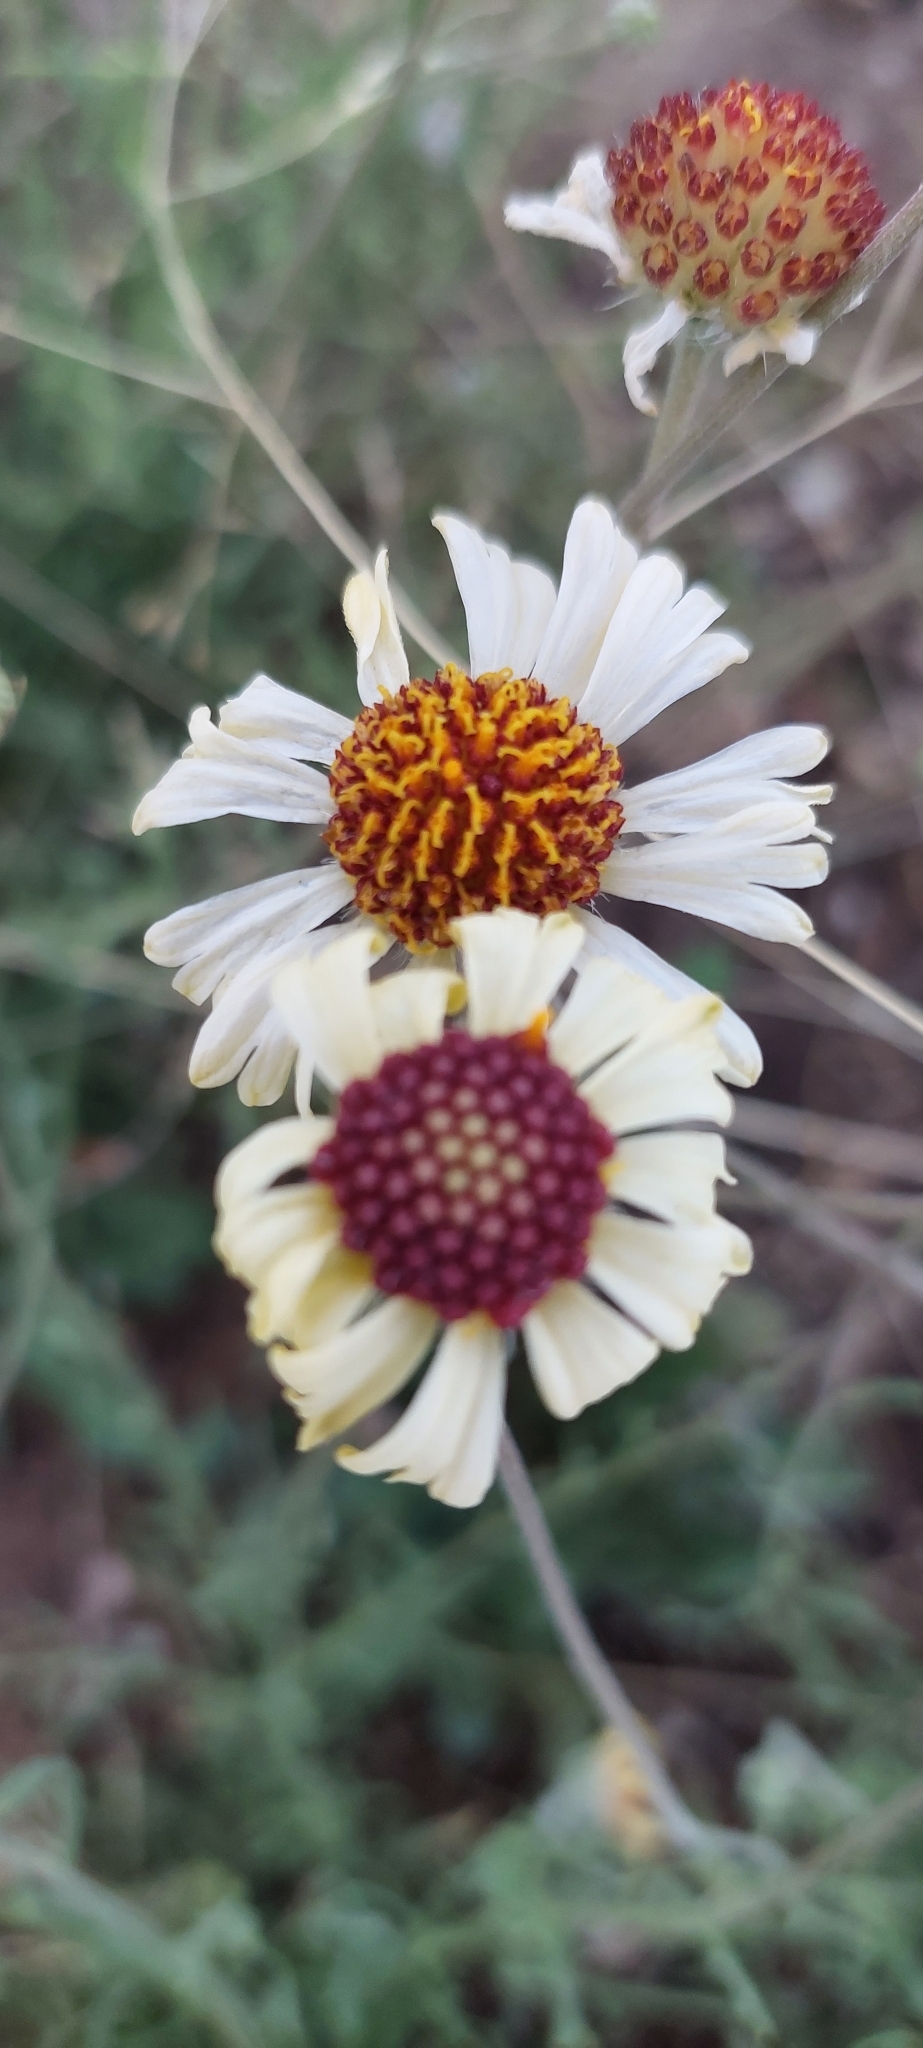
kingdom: Plantae
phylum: Tracheophyta
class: Magnoliopsida
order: Asterales
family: Asteraceae
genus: Helenium
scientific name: Helenium uniflorum
